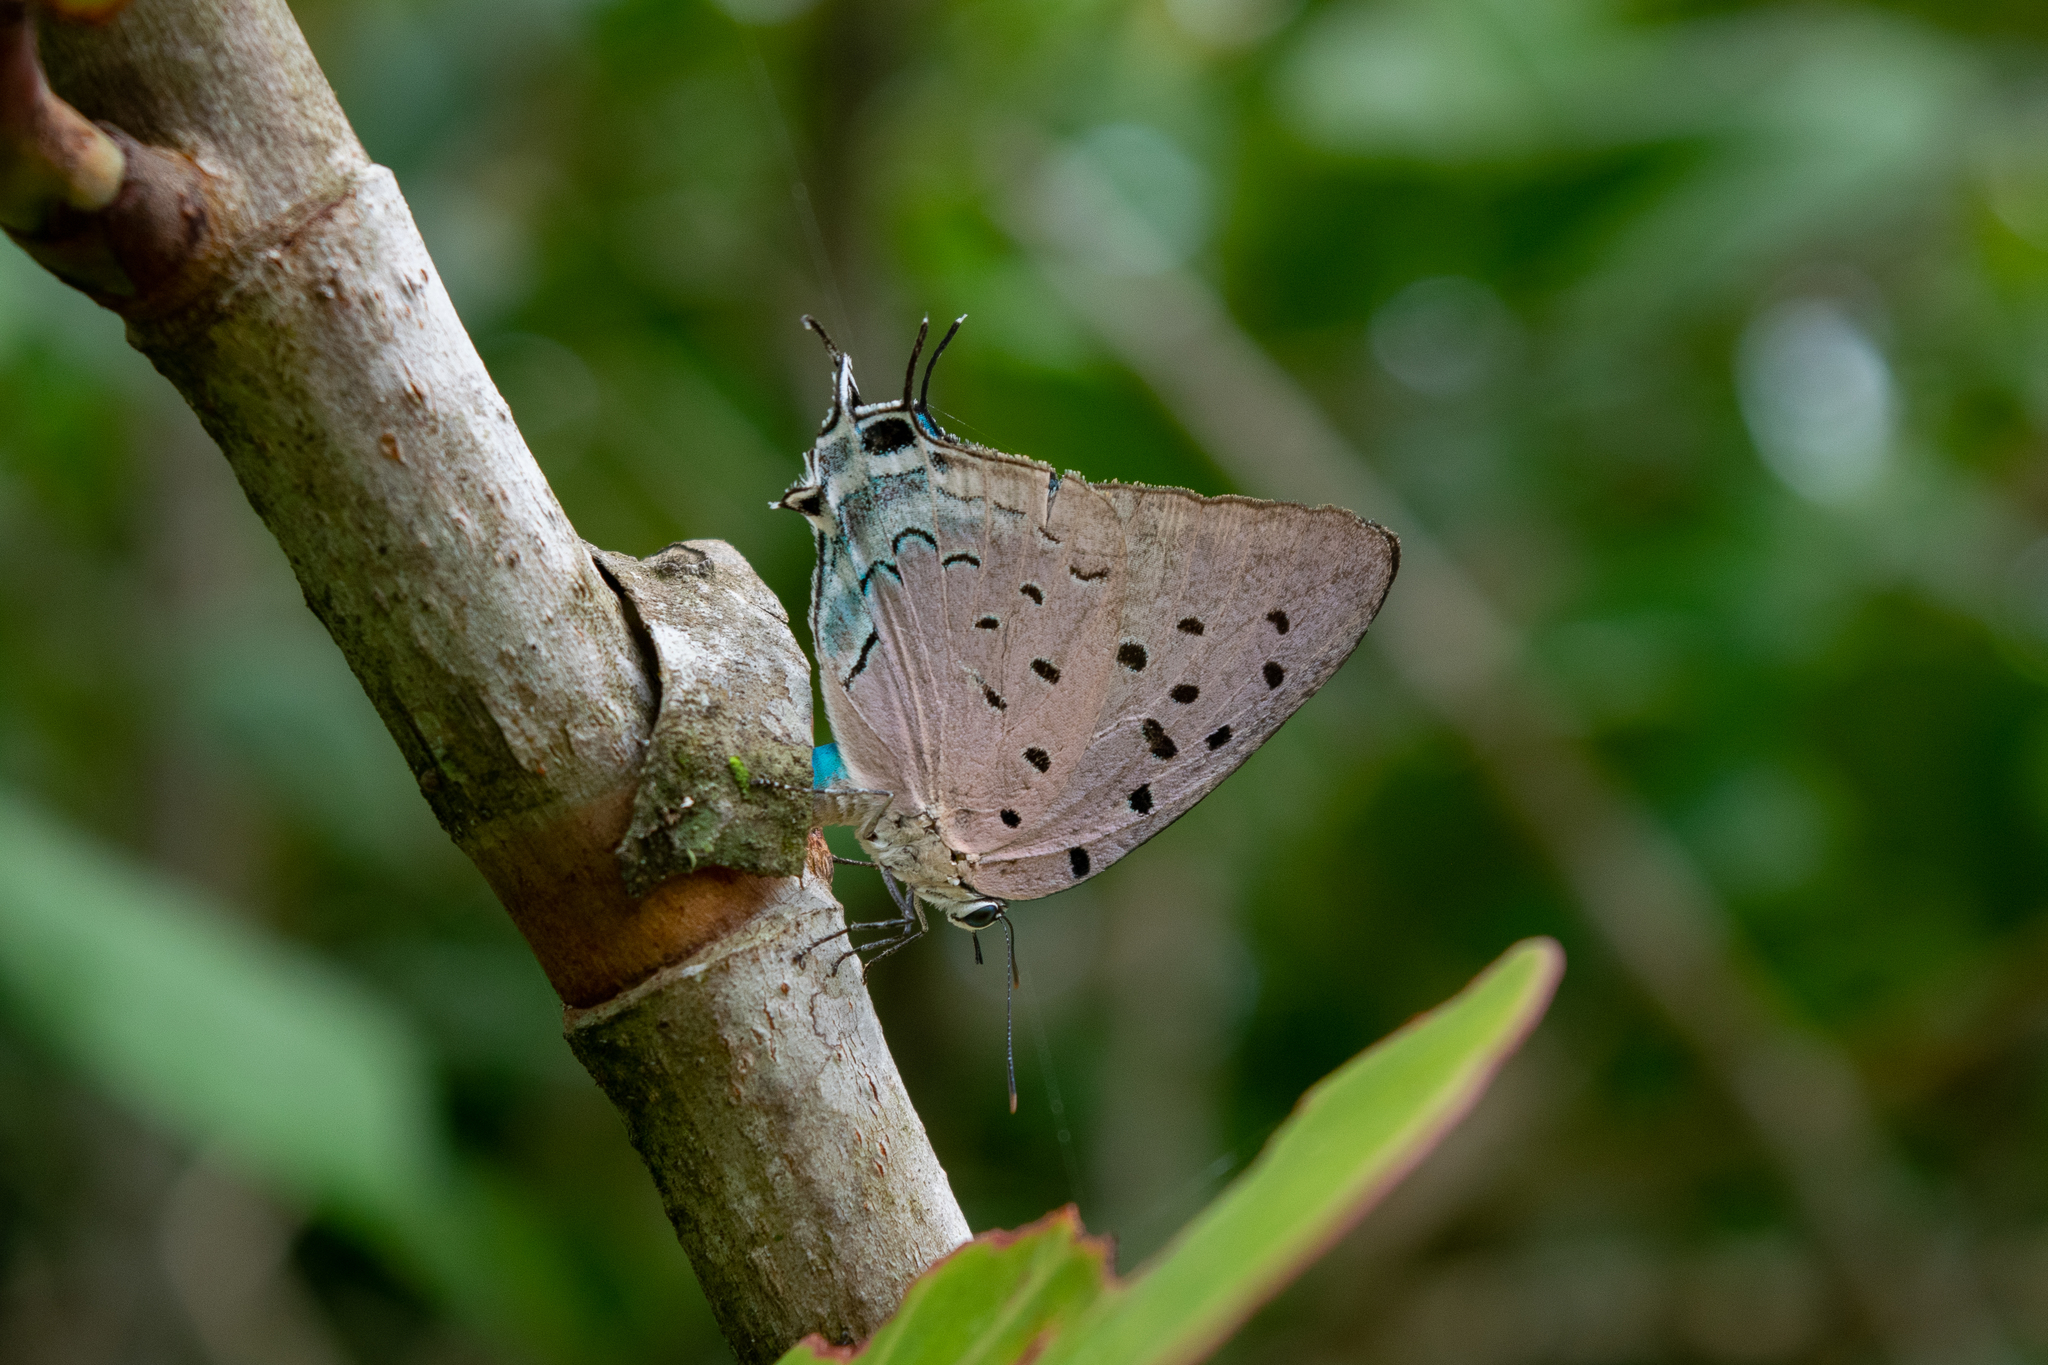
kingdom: Animalia
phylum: Arthropoda
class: Insecta
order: Lepidoptera
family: Lycaenidae
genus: Pseudolycaena
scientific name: Pseudolycaena damo
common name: Sky-blue hairstreak
